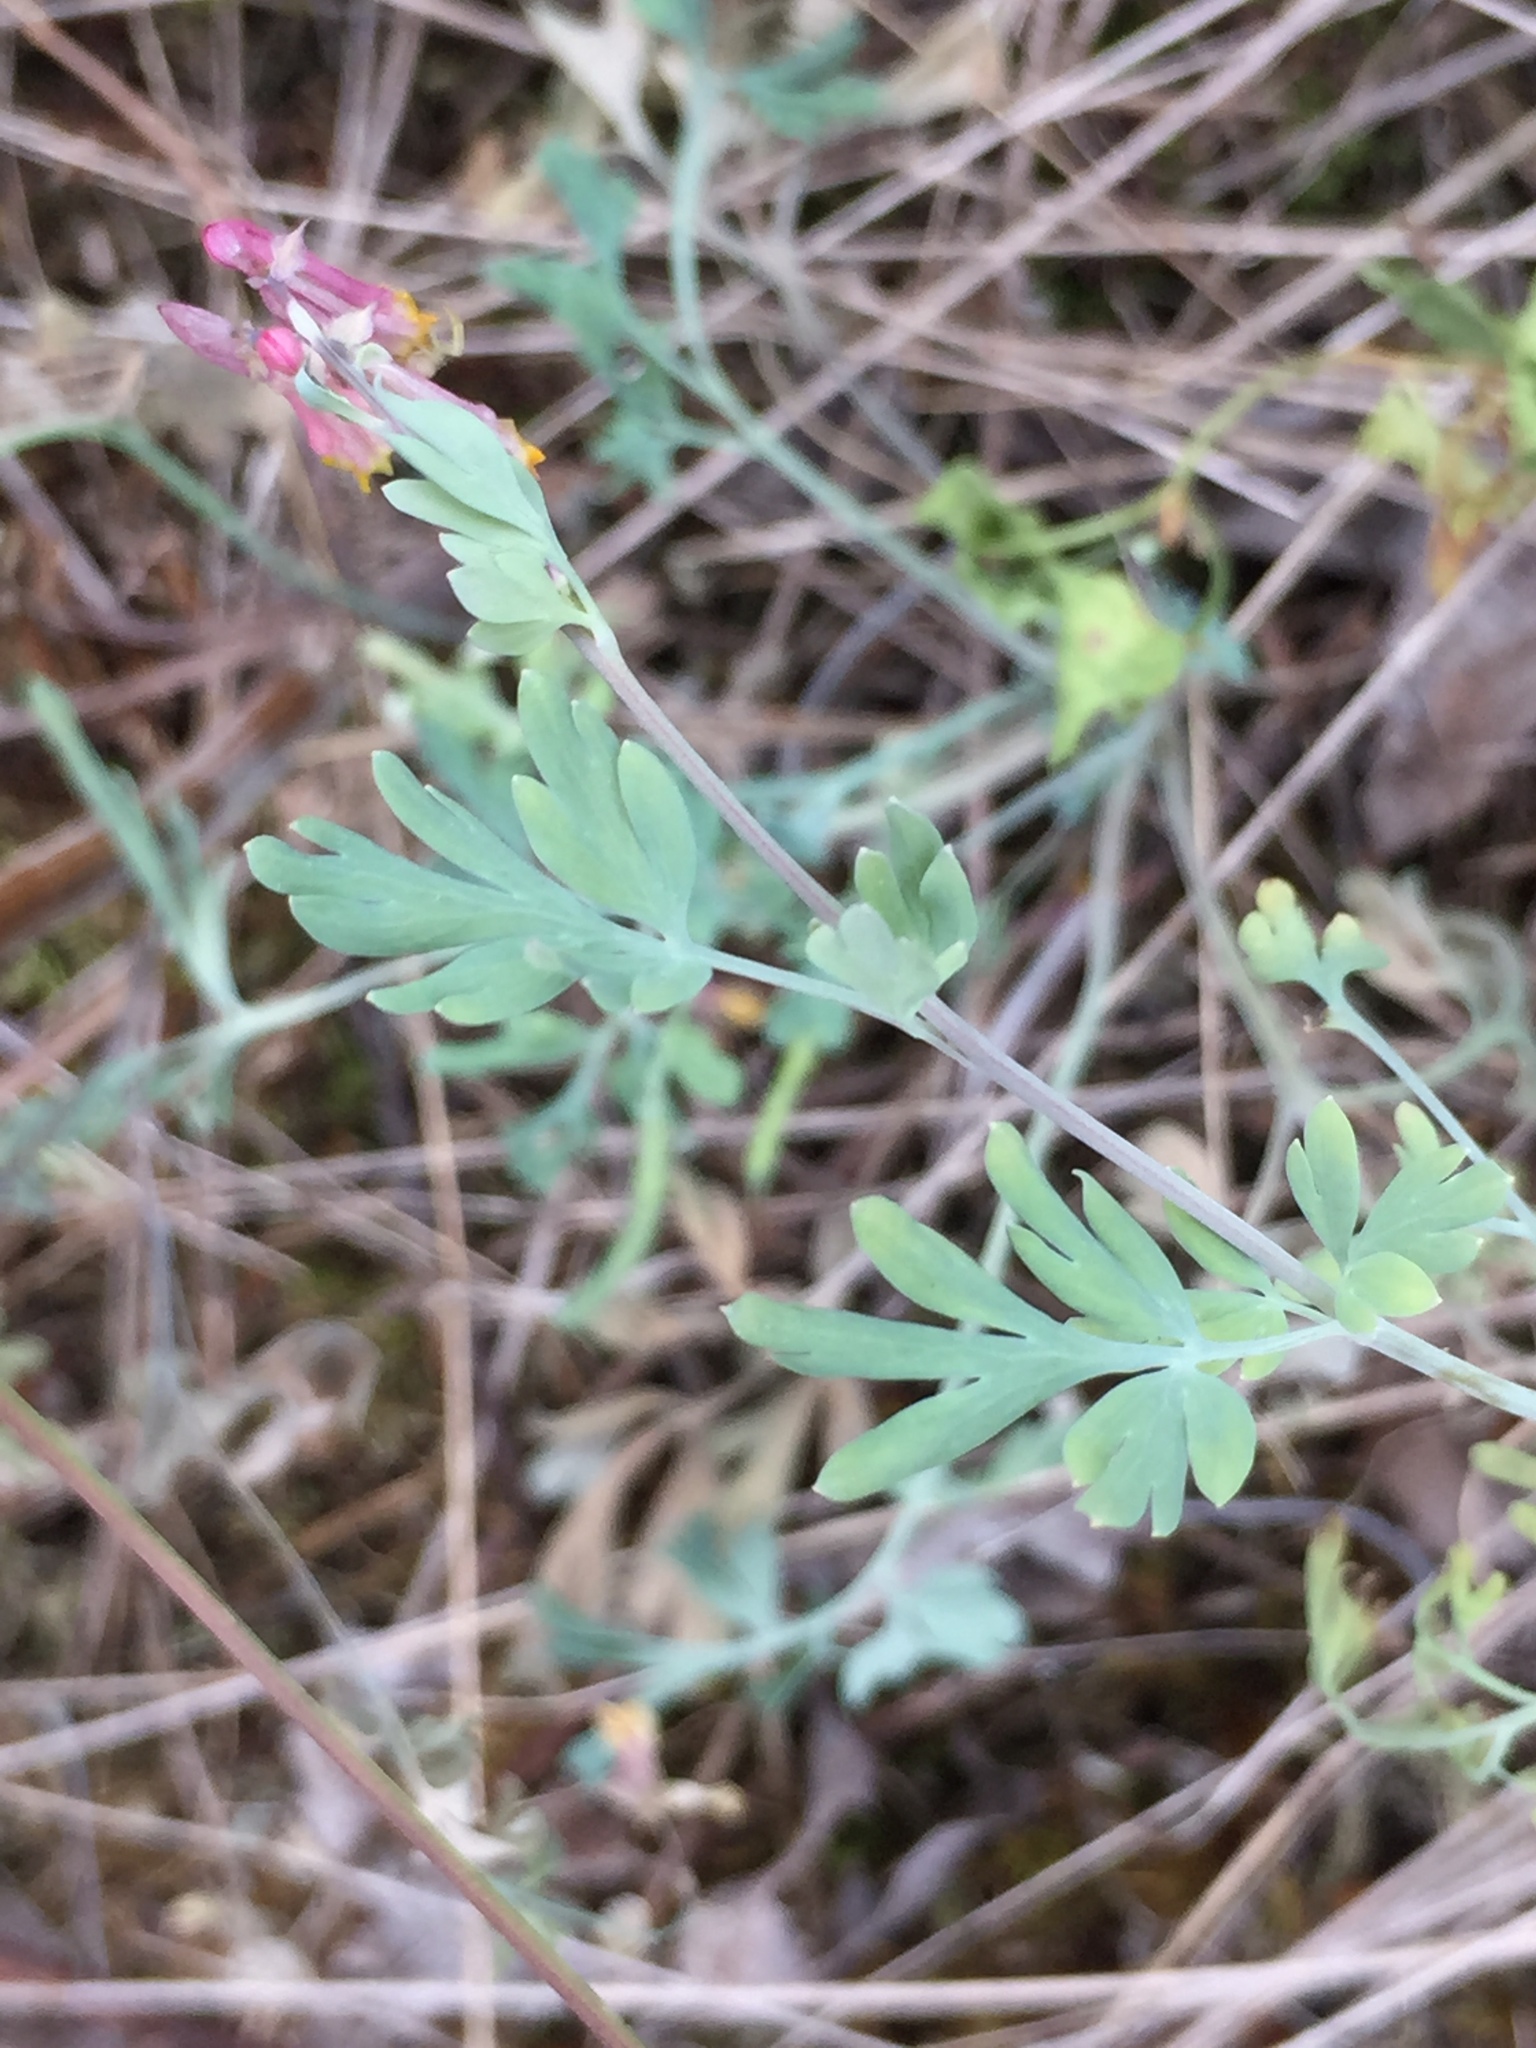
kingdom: Plantae
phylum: Tracheophyta
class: Magnoliopsida
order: Ranunculales
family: Papaveraceae
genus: Capnoides
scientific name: Capnoides sempervirens
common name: Rock harlequin
